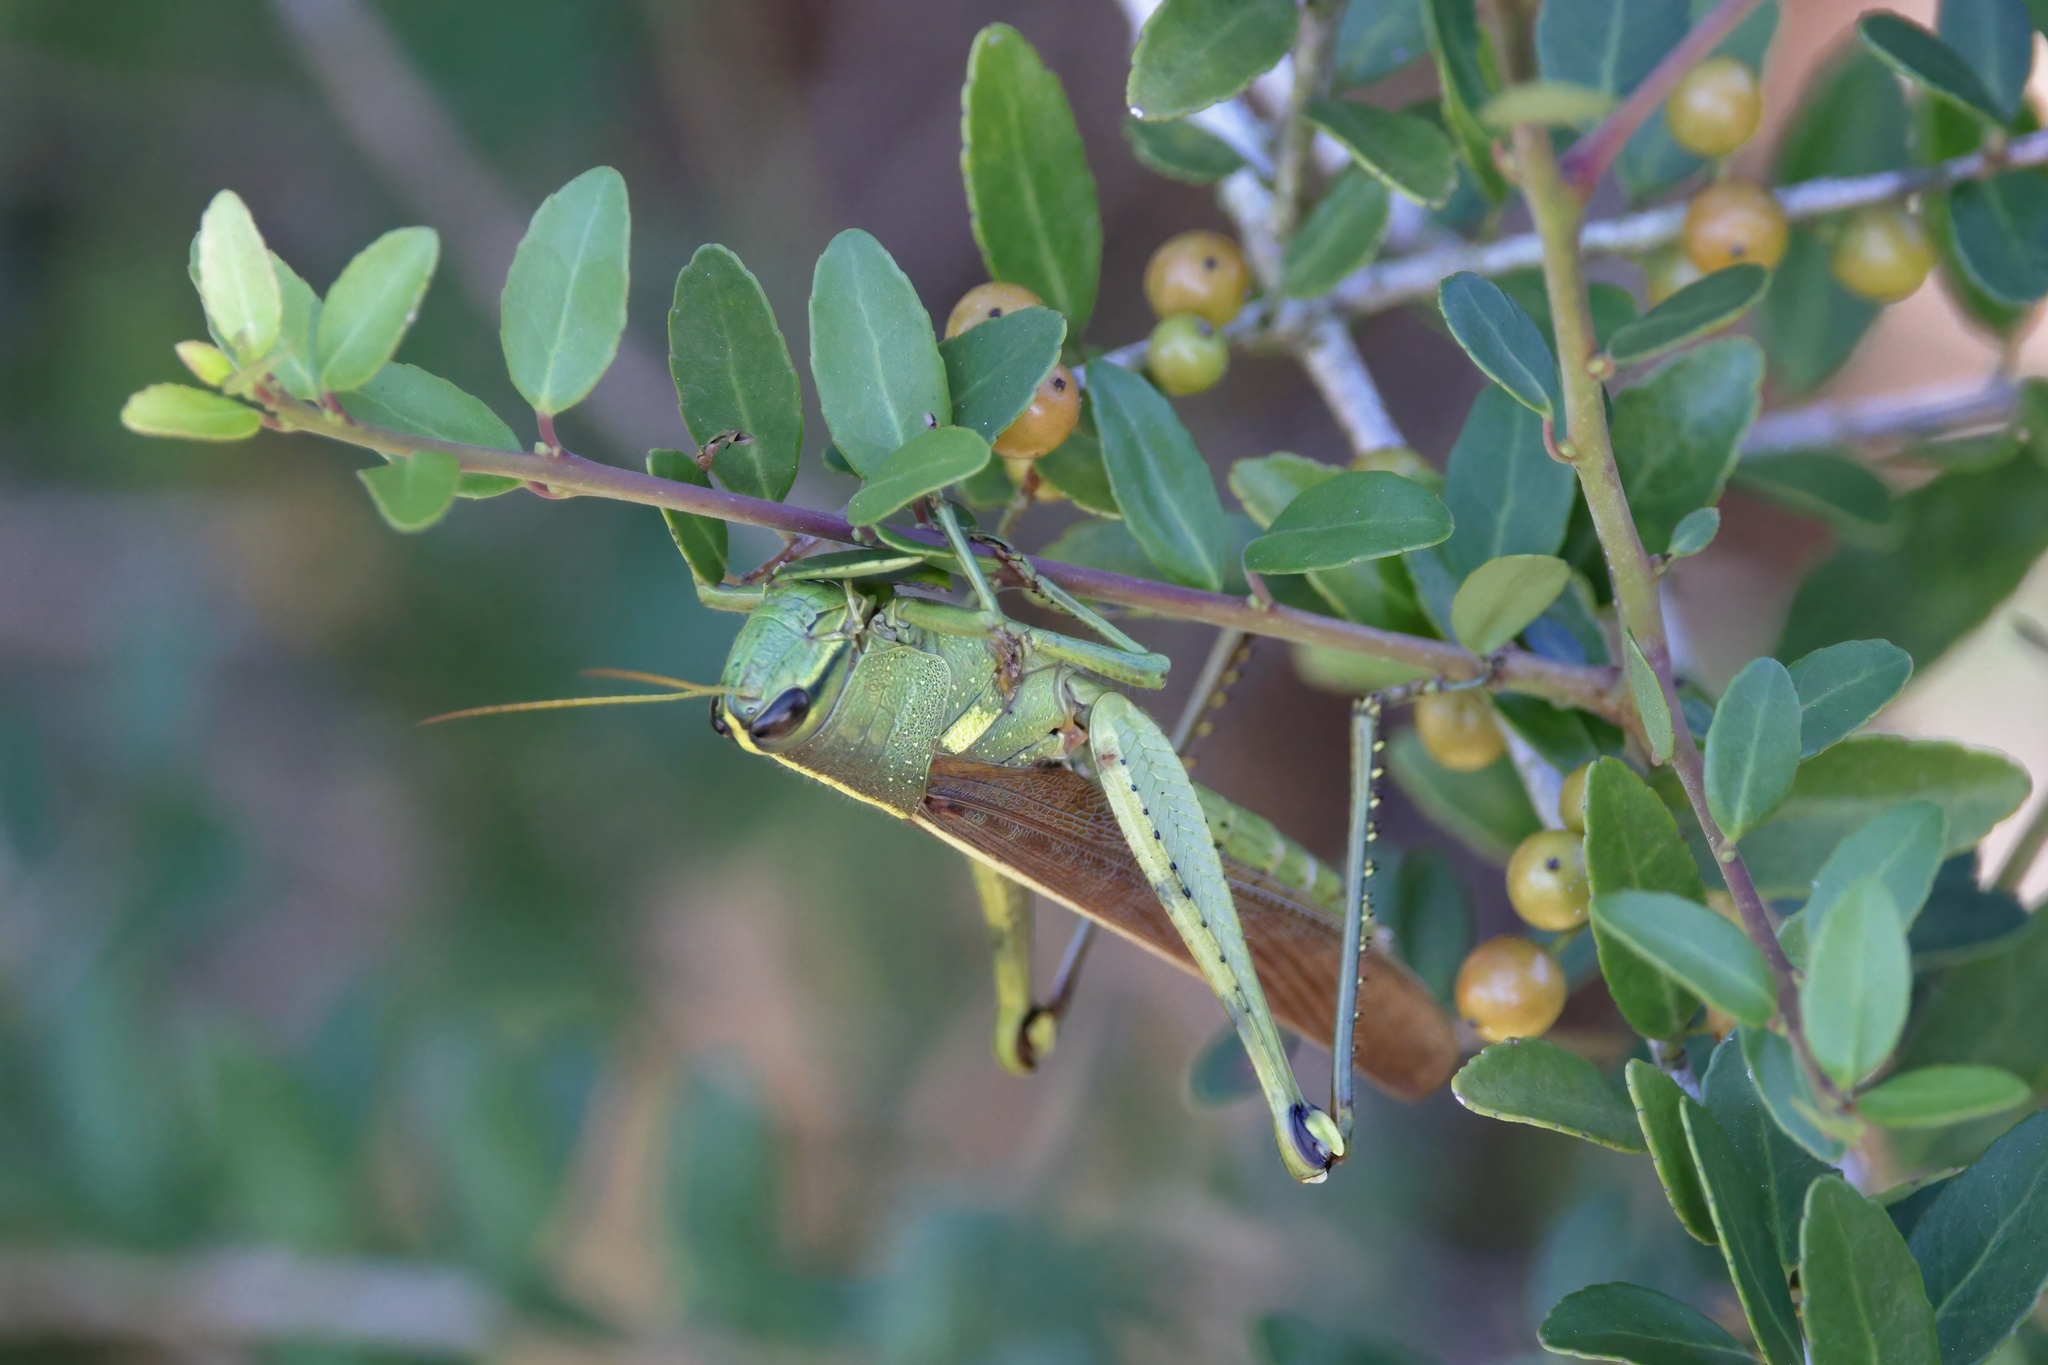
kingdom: Animalia
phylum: Arthropoda
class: Insecta
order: Orthoptera
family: Acrididae
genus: Schistocerca
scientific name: Schistocerca obscura
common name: Obscure bird grasshopper
